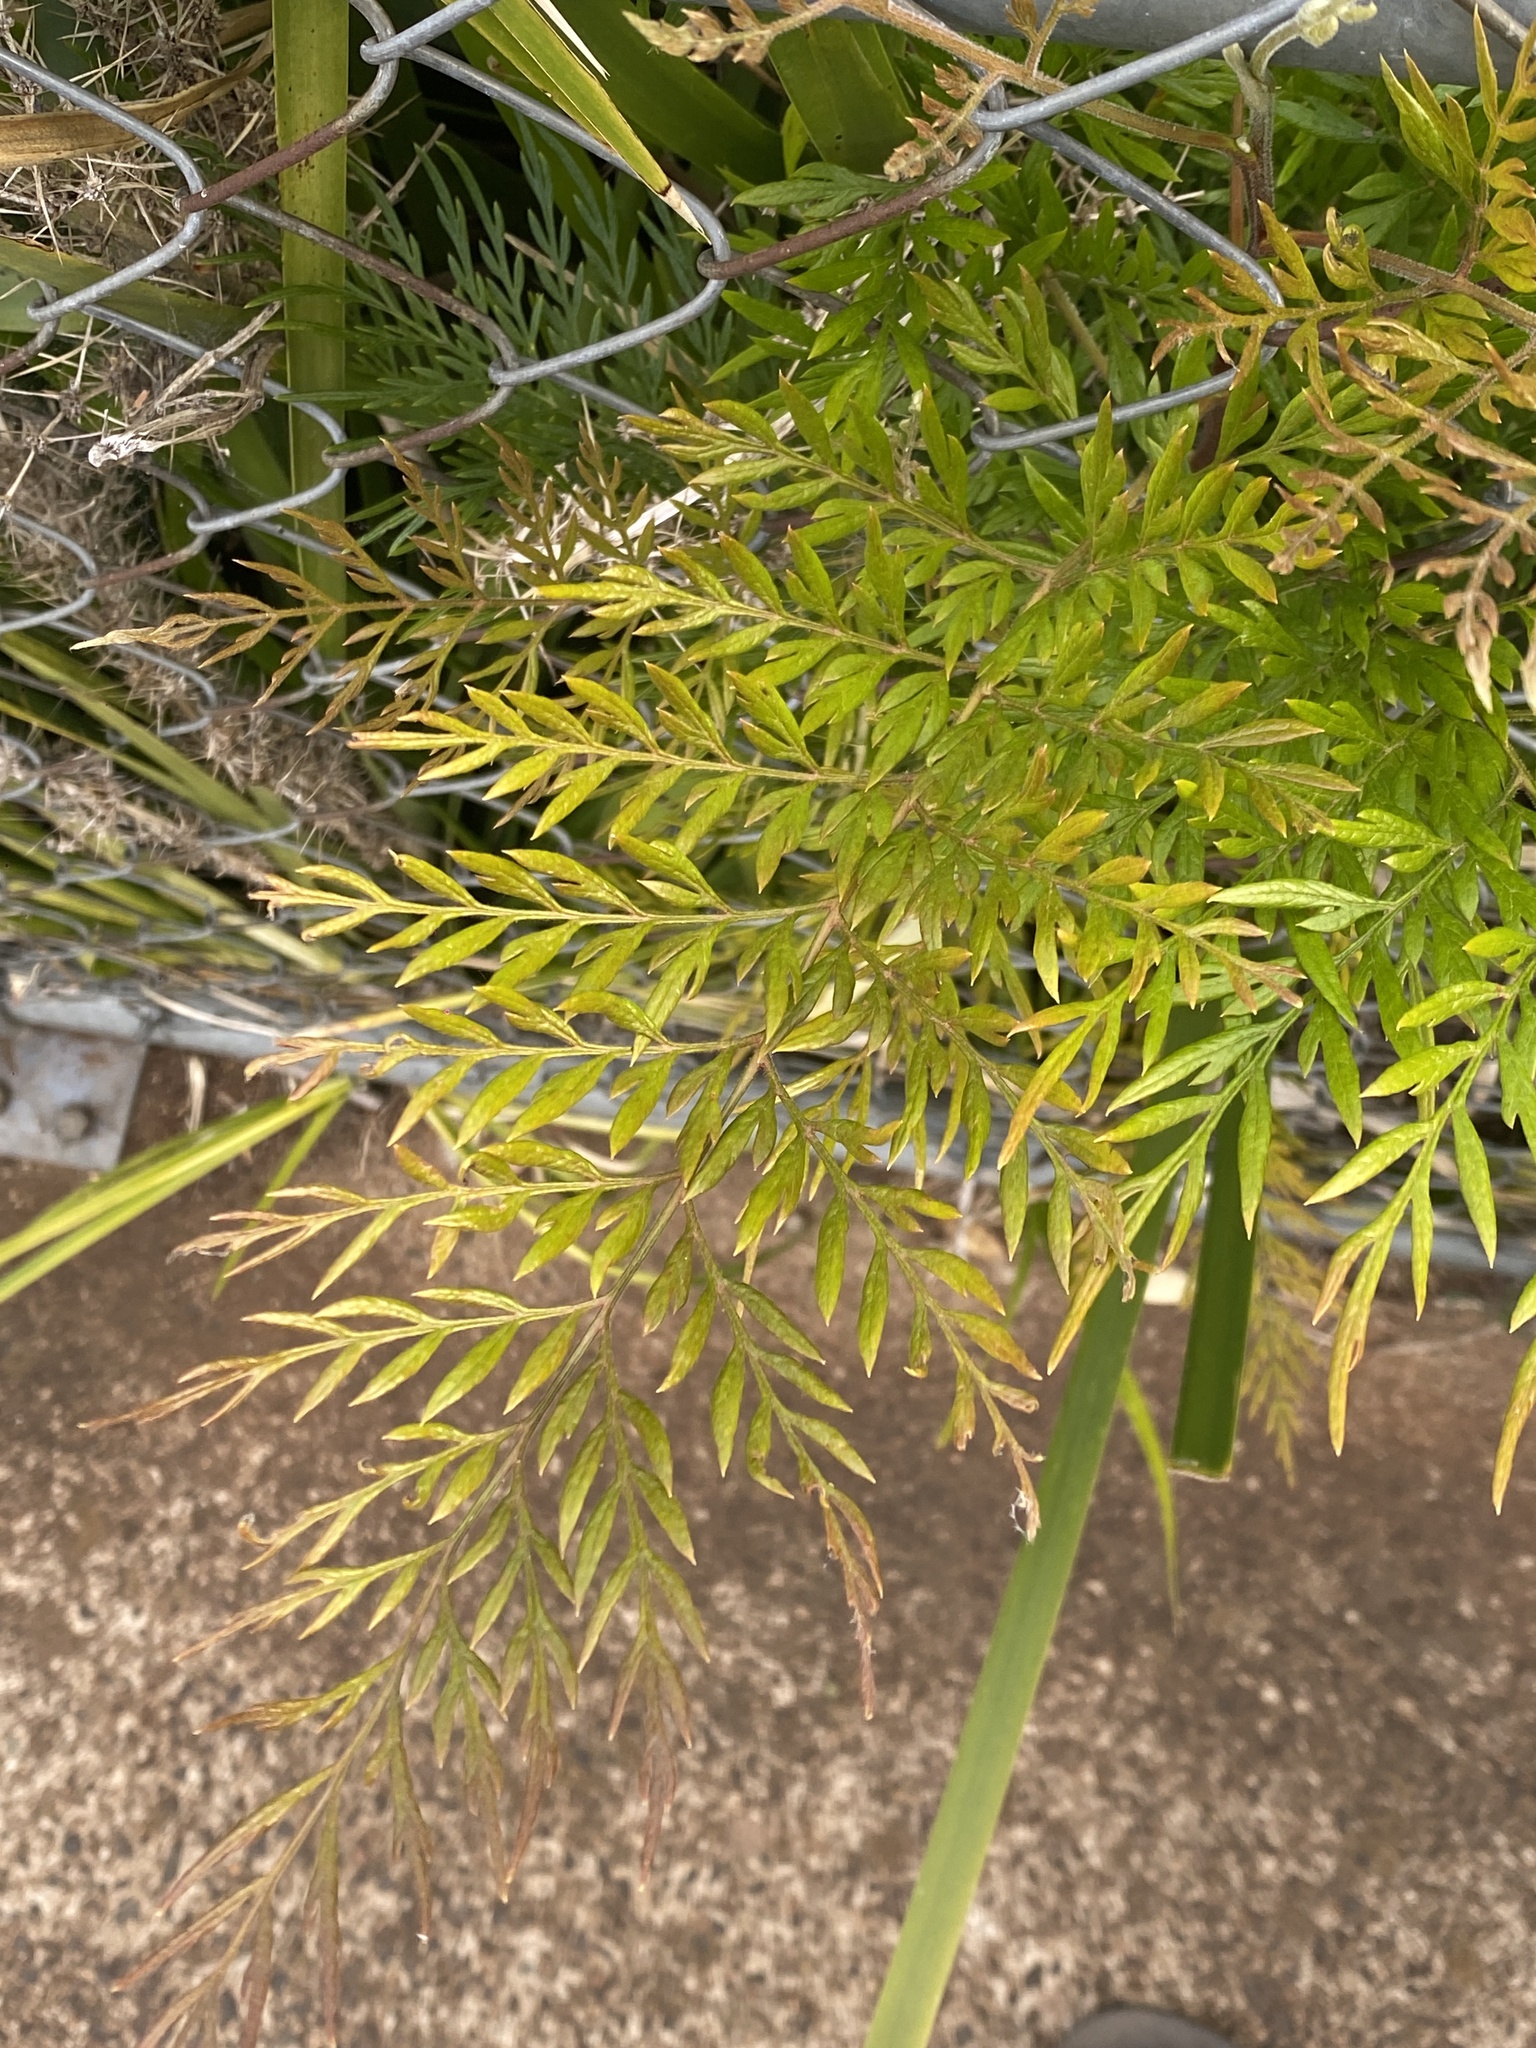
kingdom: Plantae
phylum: Tracheophyta
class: Magnoliopsida
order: Proteales
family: Proteaceae
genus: Grevillea
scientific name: Grevillea robusta
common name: Silkoak
